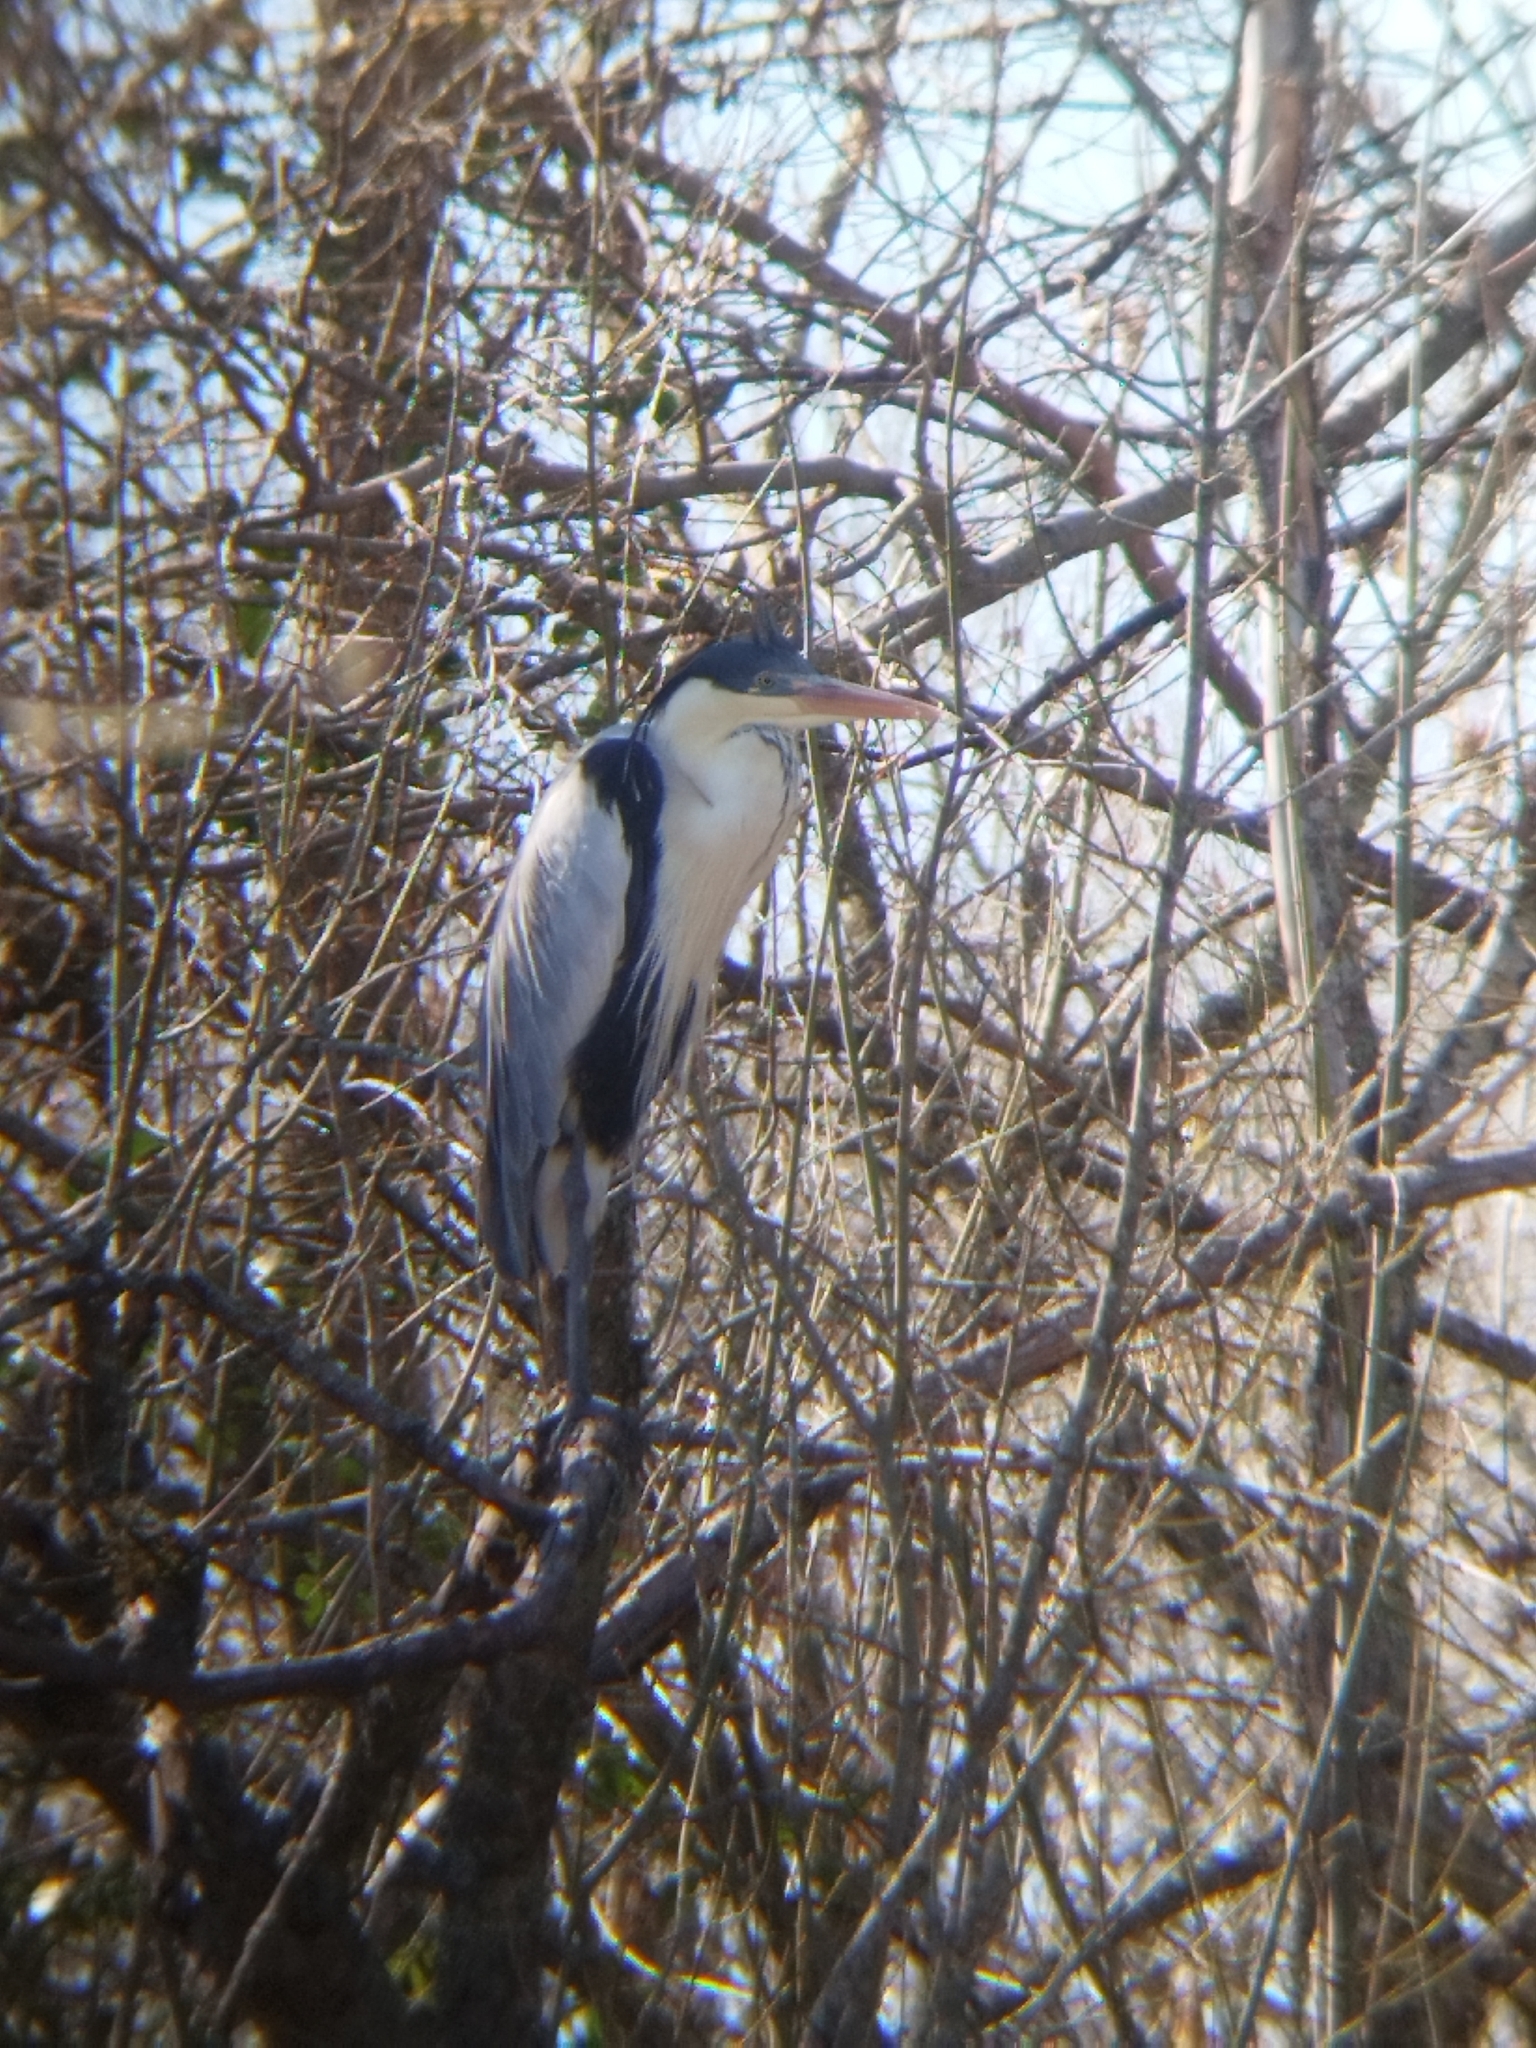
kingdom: Animalia
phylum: Chordata
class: Aves
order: Pelecaniformes
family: Ardeidae
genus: Ardea
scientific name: Ardea cocoi
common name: Cocoi heron
